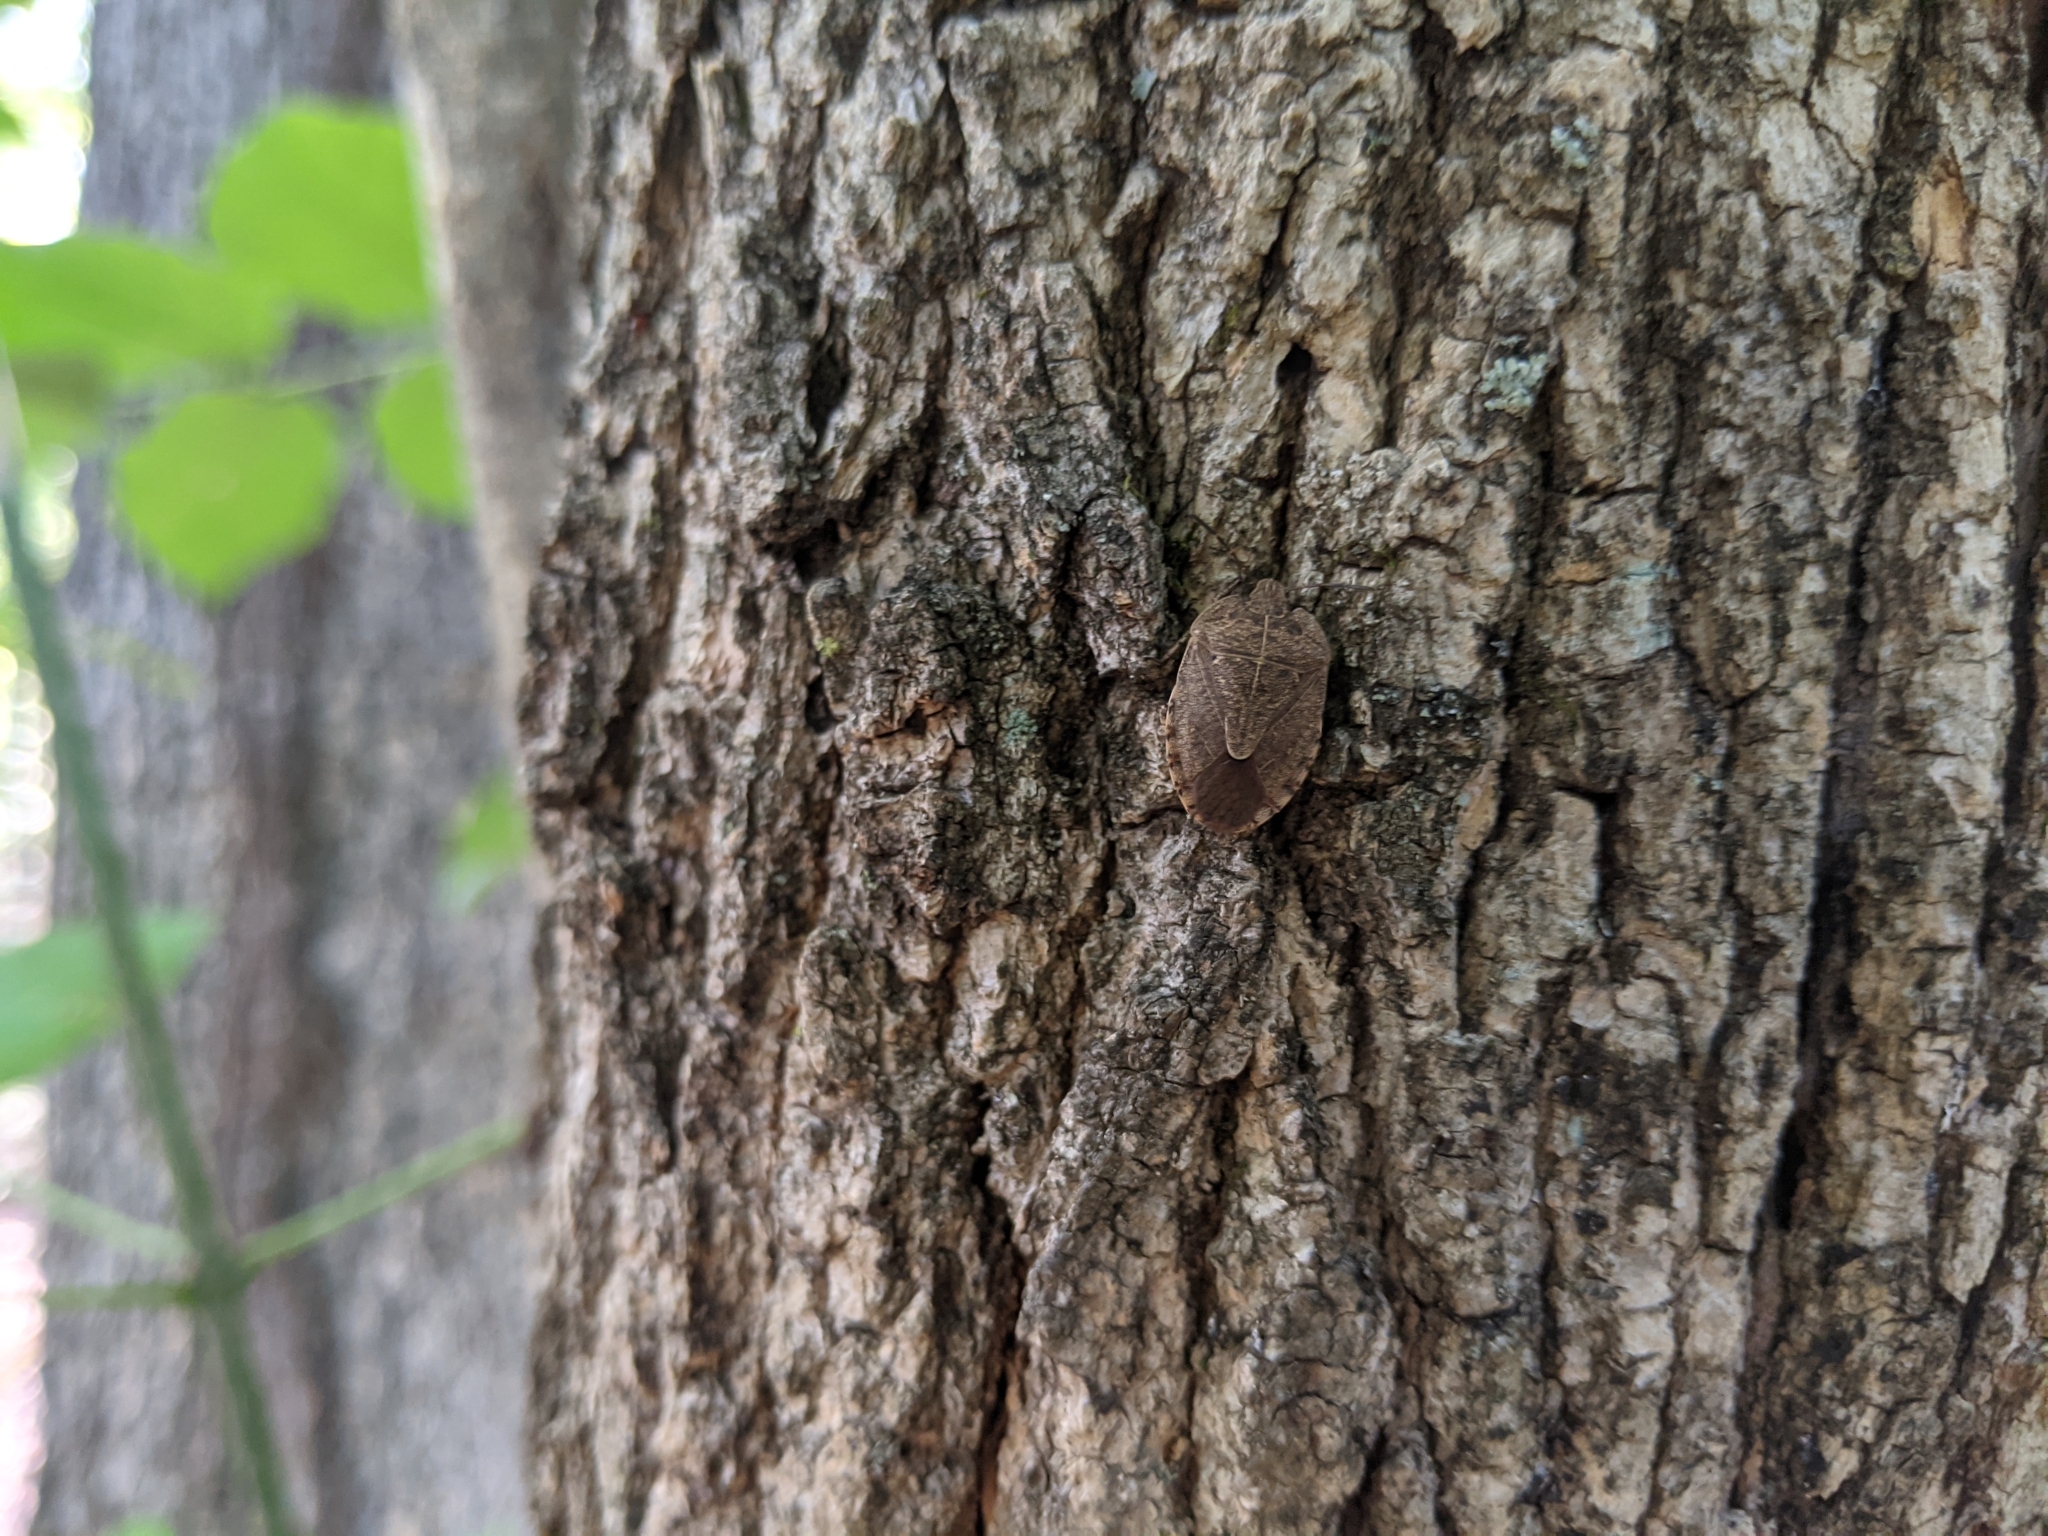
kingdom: Animalia
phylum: Arthropoda
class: Insecta
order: Hemiptera
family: Pentatomidae
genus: Menecles
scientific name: Menecles insertus
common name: Elf shoe stink bug
